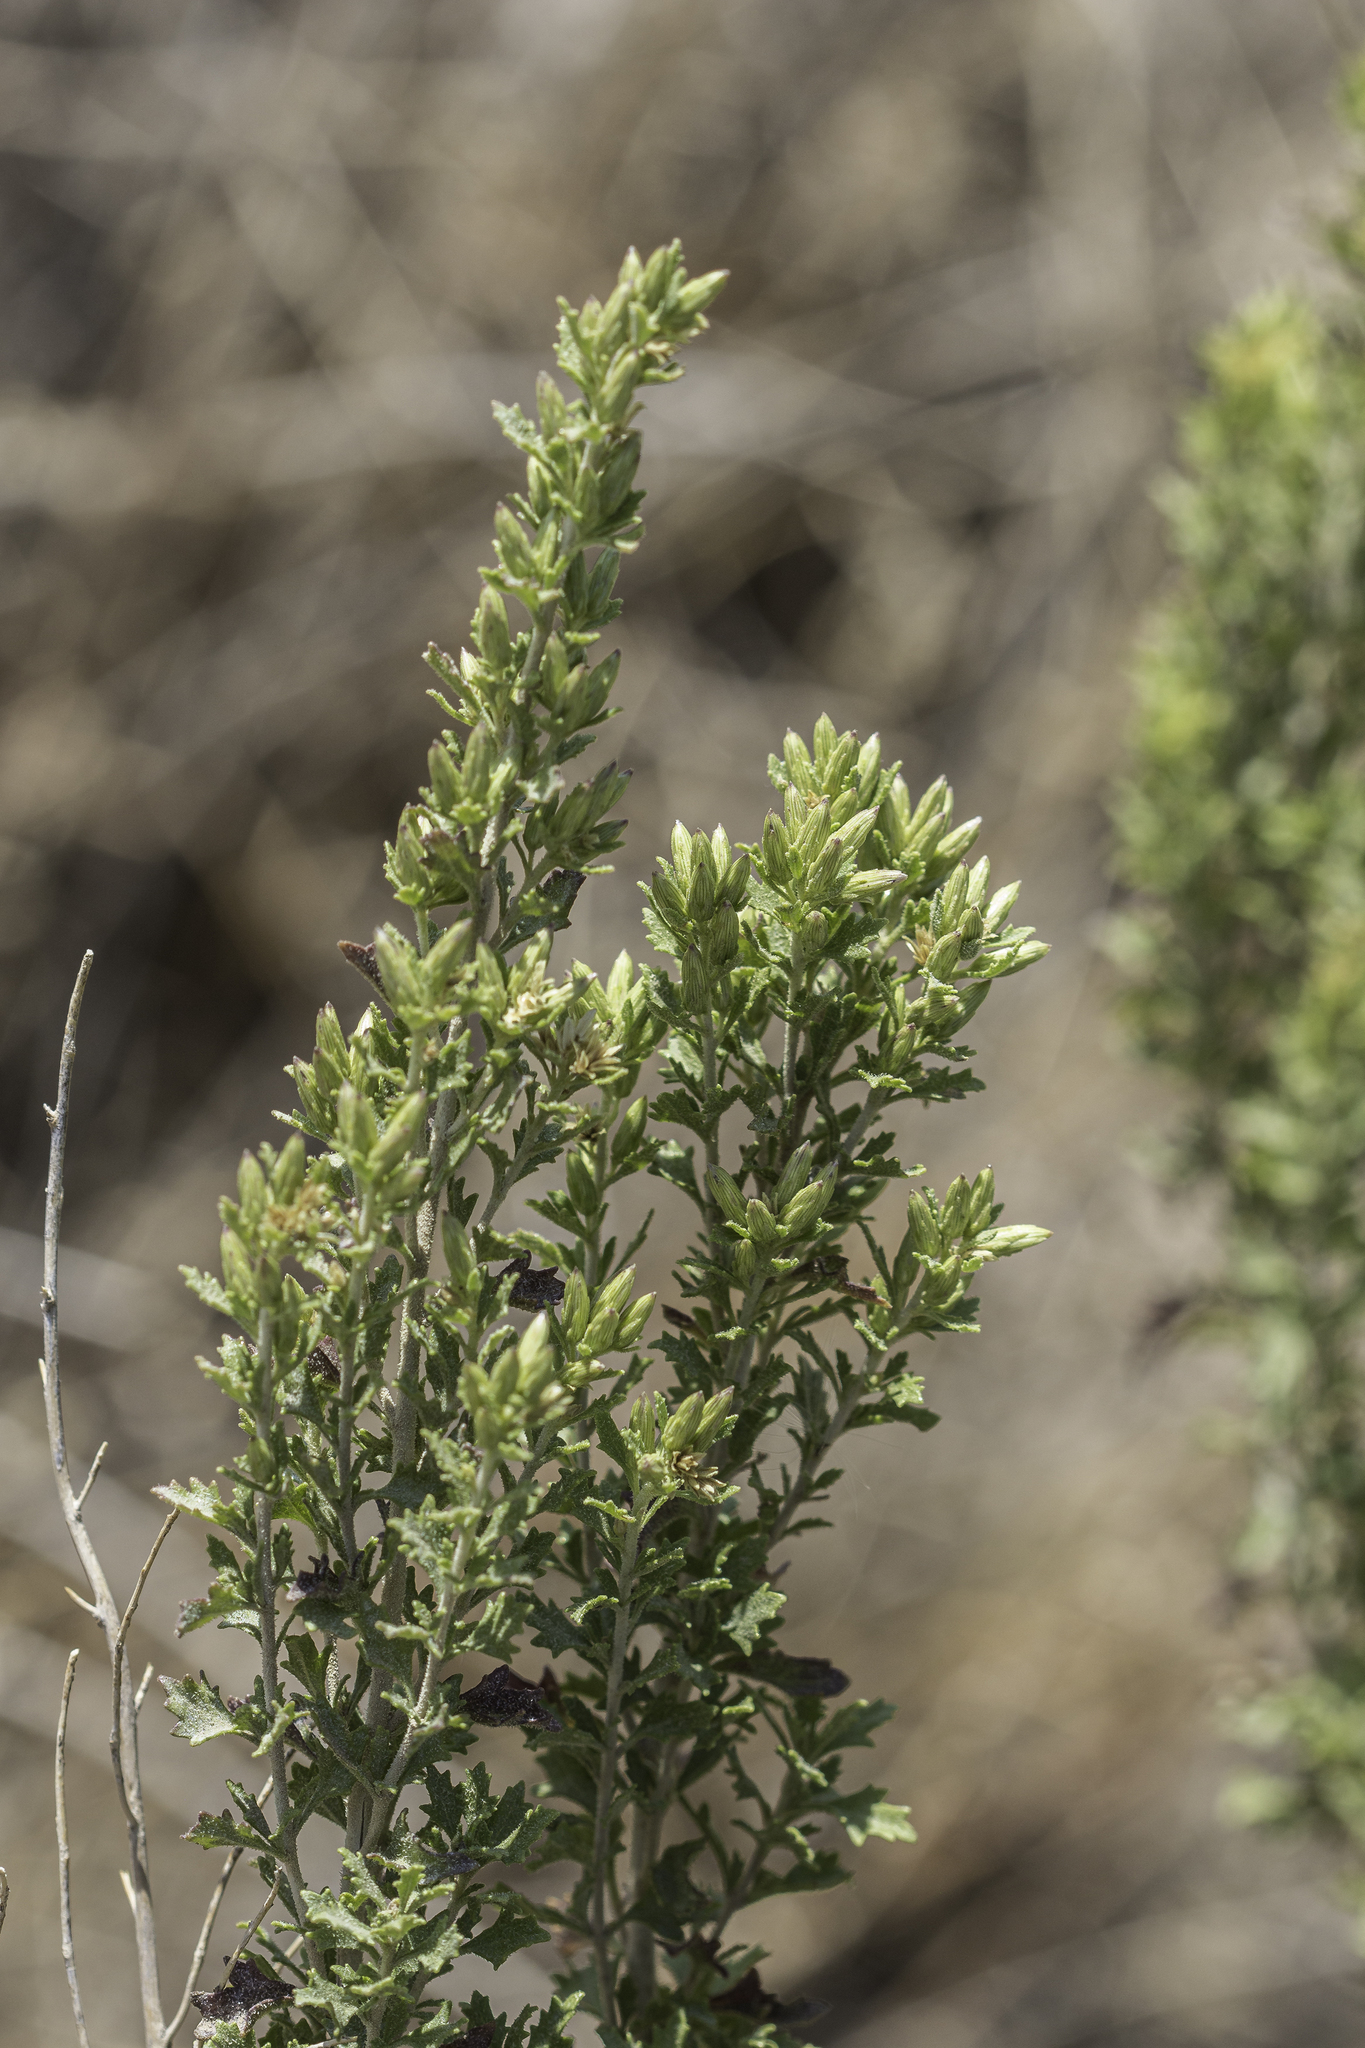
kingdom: Plantae
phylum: Tracheophyta
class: Magnoliopsida
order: Asterales
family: Asteraceae
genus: Brickellia
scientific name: Brickellia laciniata
